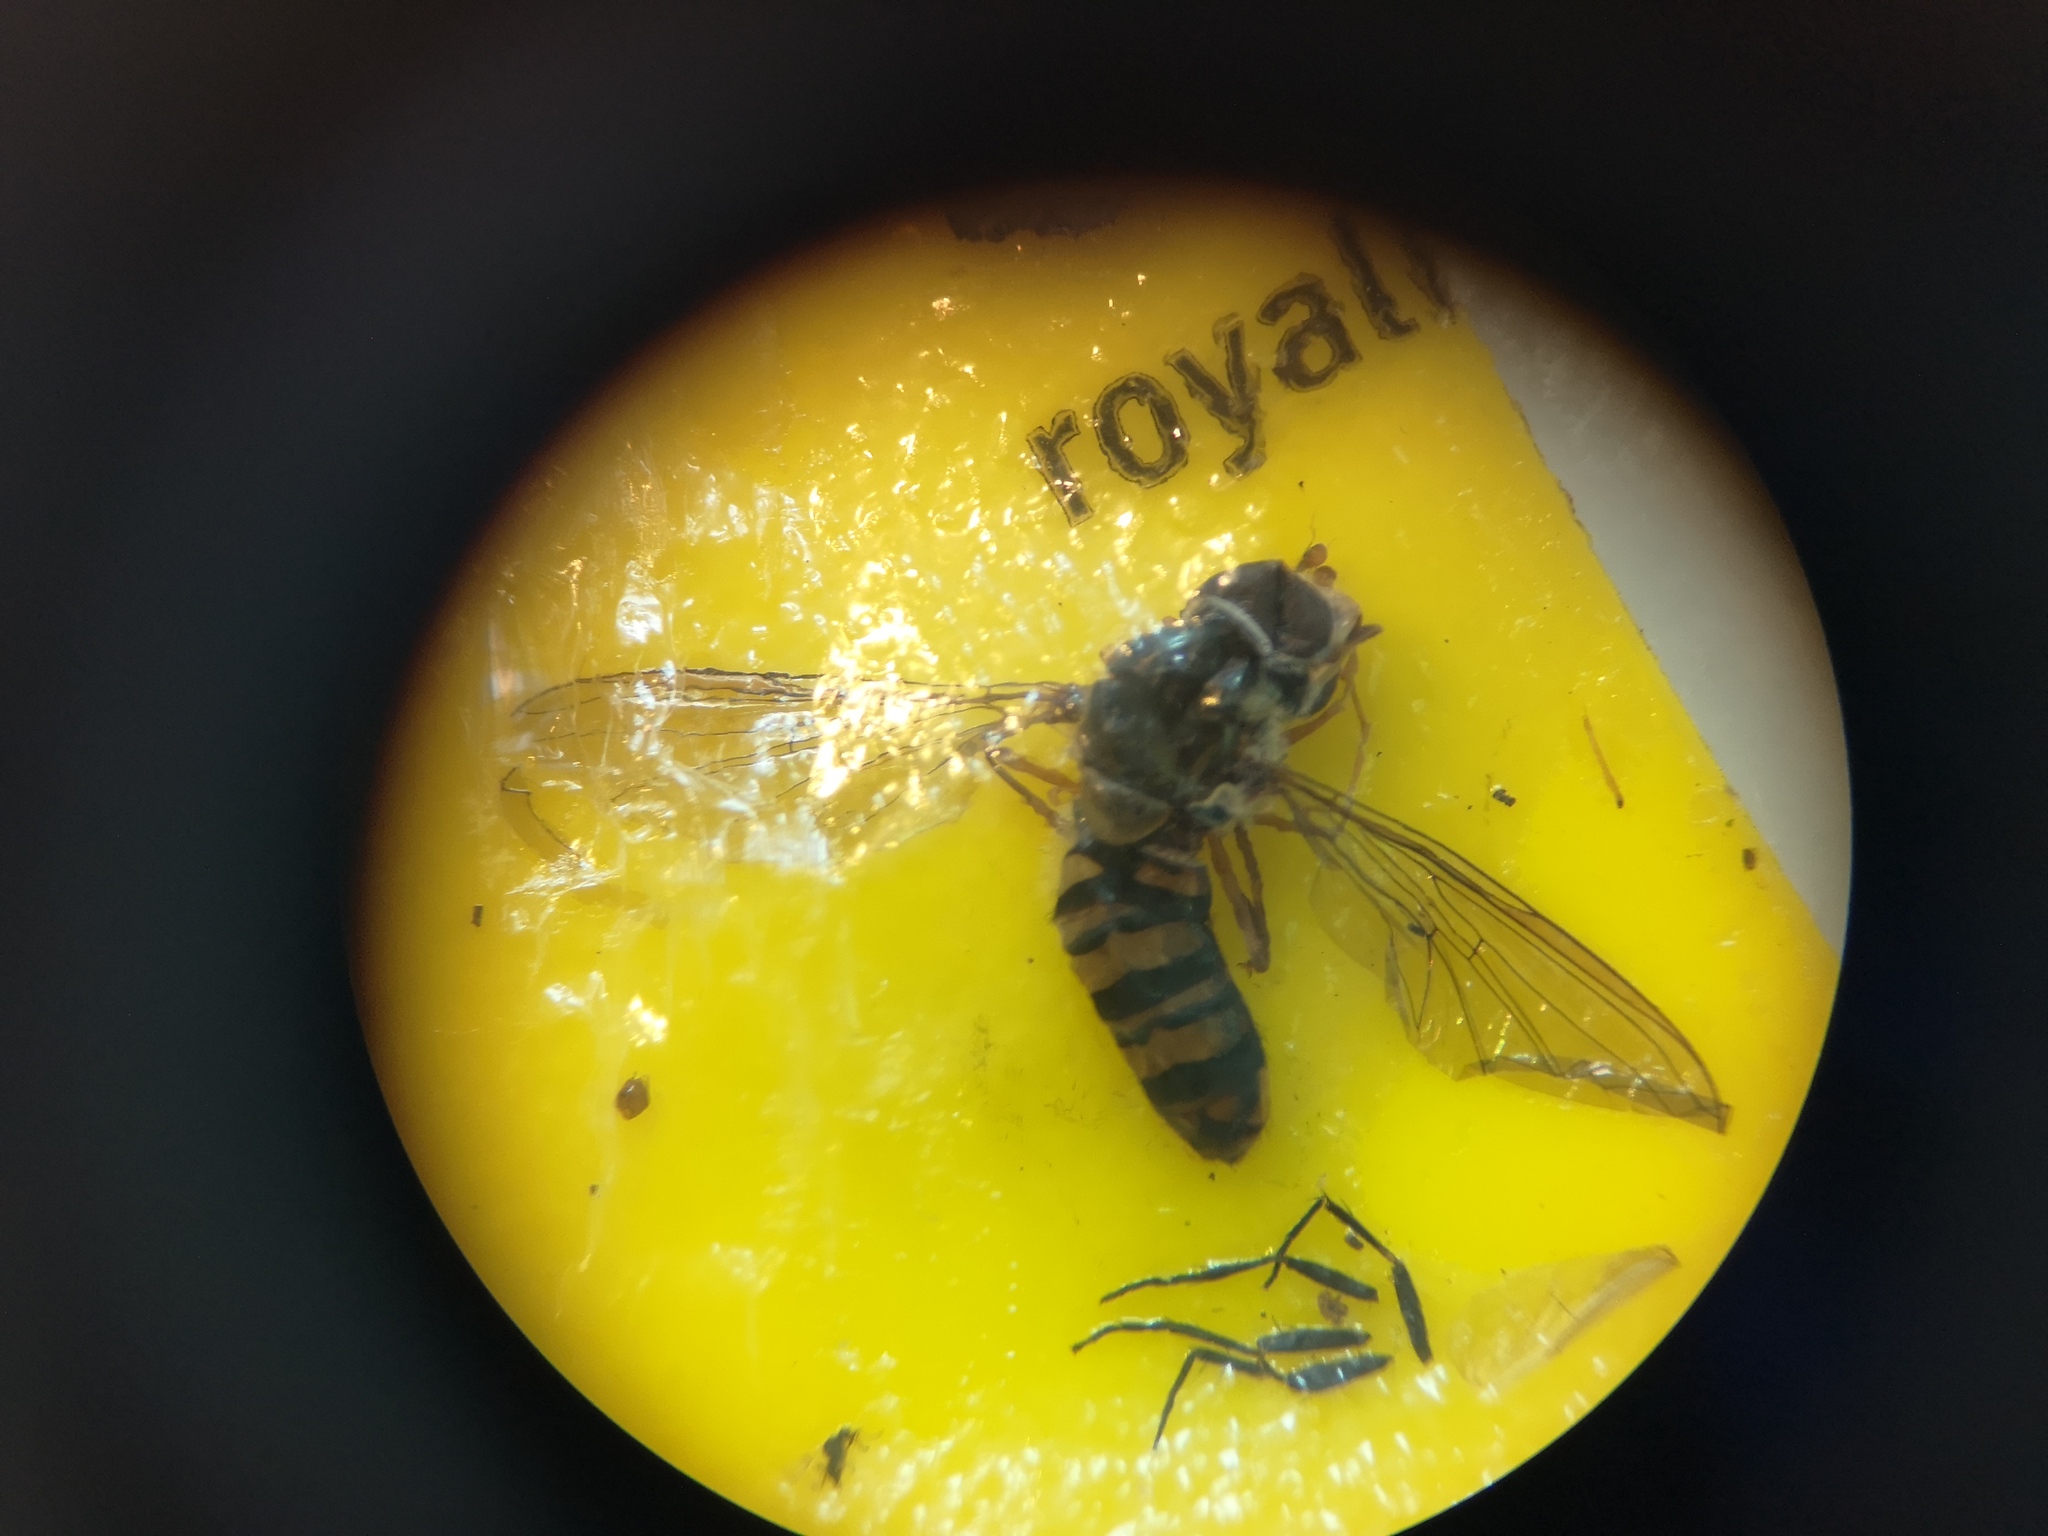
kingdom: Animalia
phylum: Arthropoda
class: Insecta
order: Diptera
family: Syrphidae
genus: Episyrphus
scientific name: Episyrphus balteatus
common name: Marmalade hoverfly
